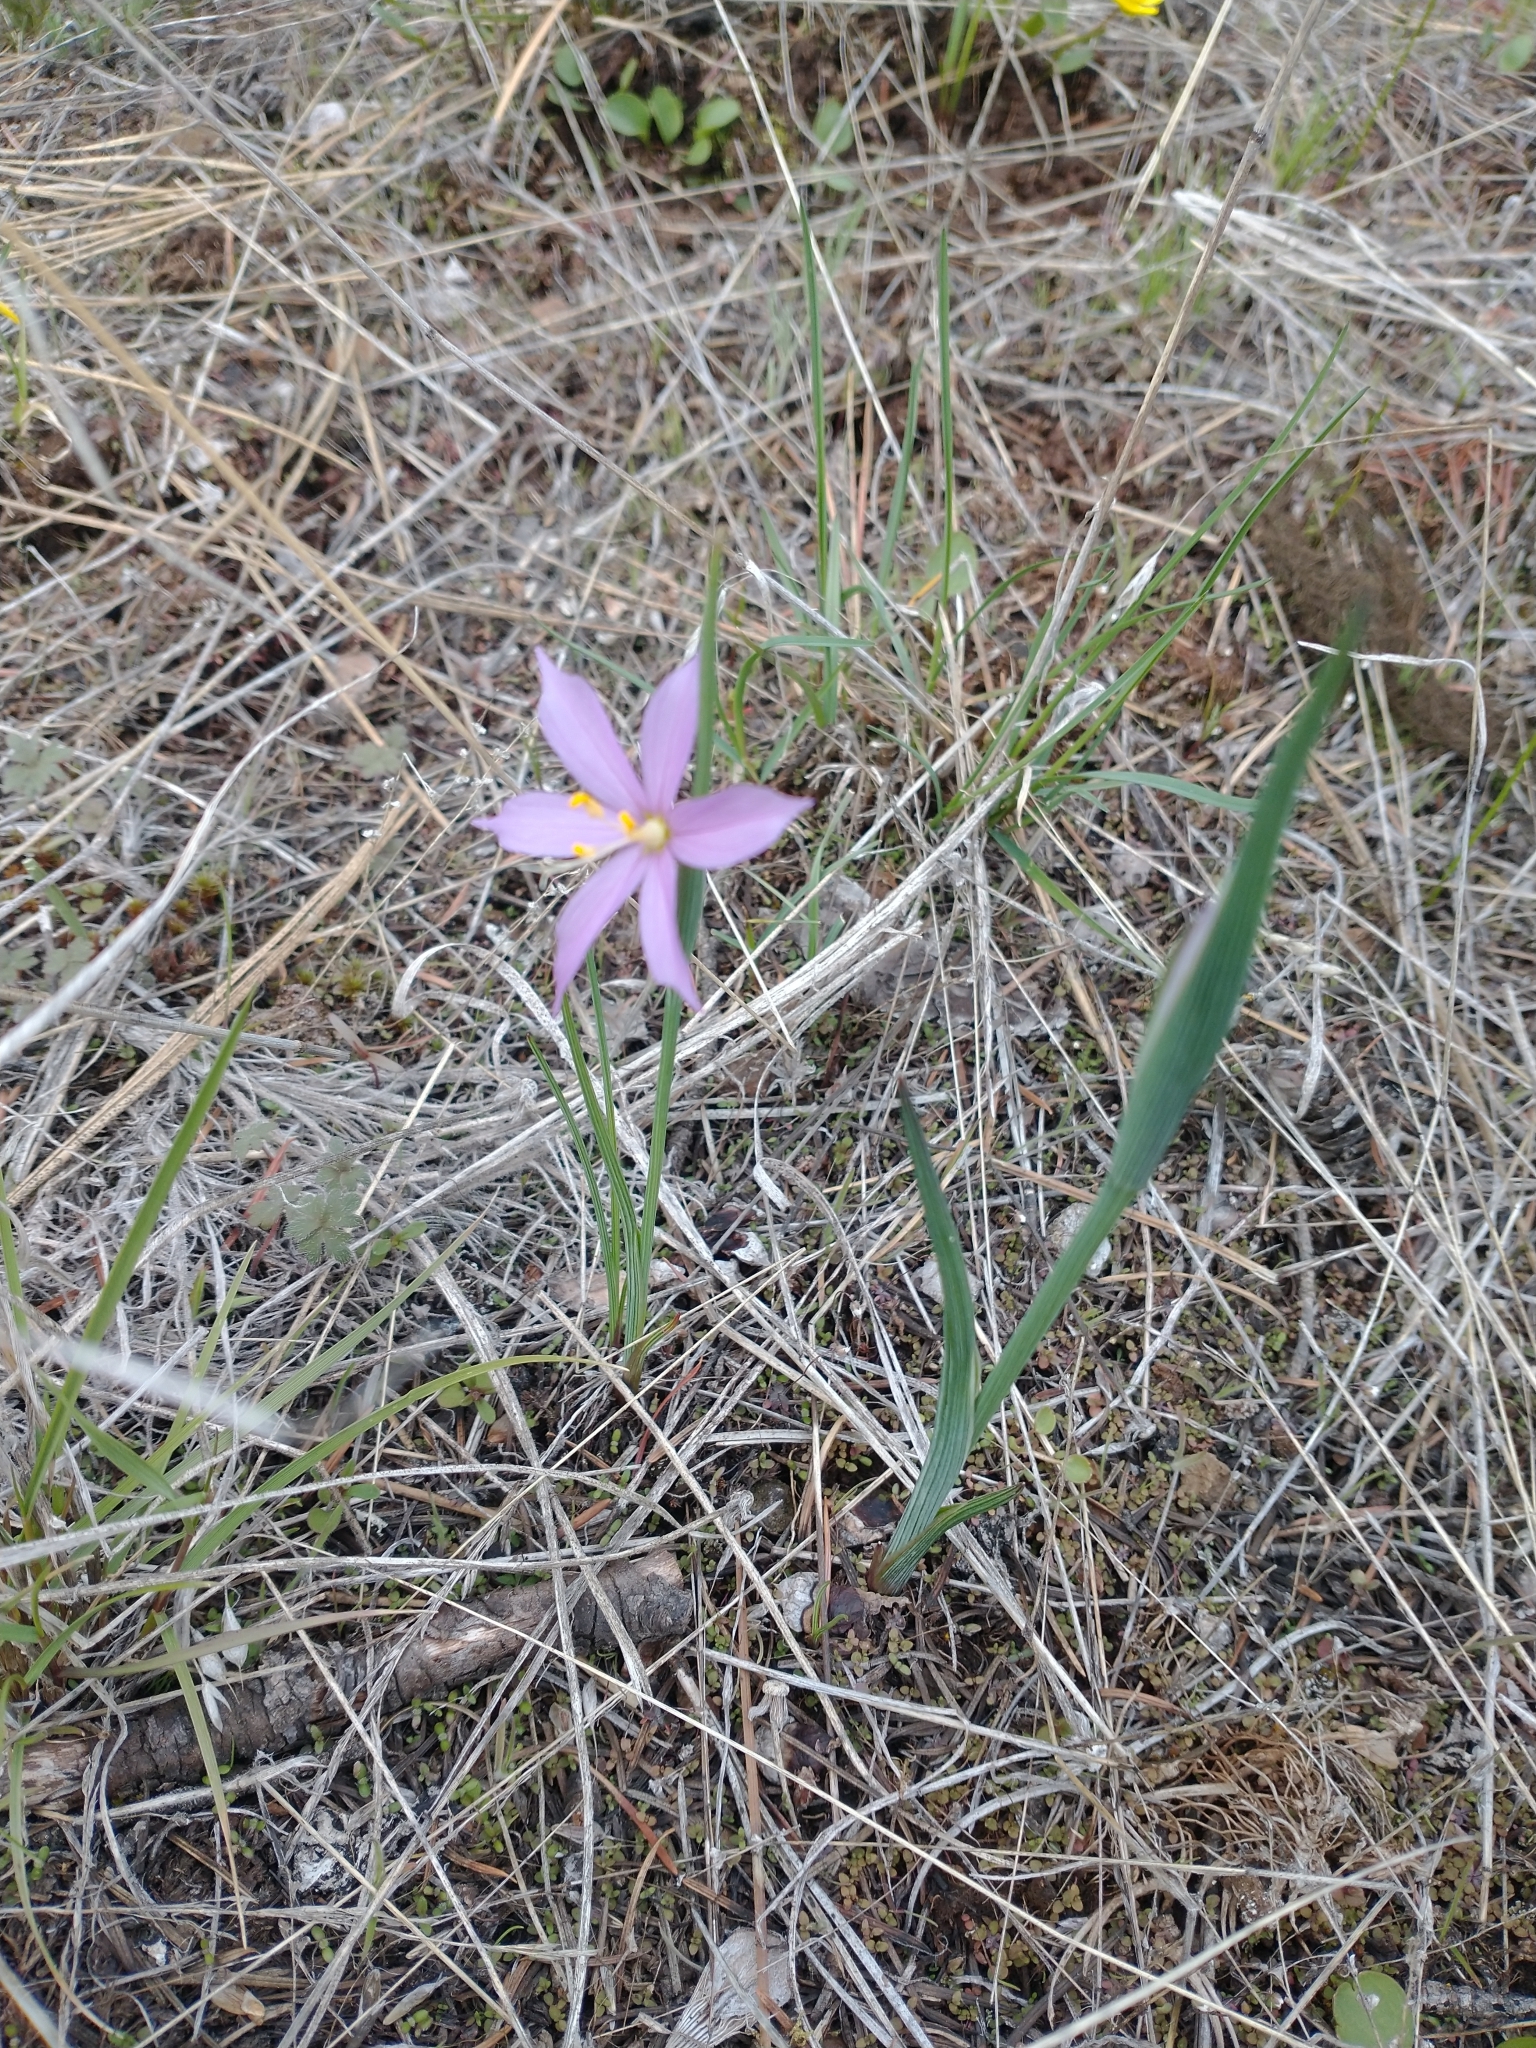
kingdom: Plantae
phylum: Tracheophyta
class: Liliopsida
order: Asparagales
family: Iridaceae
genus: Olsynium
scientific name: Olsynium douglasii
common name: Douglas' grasswidow
